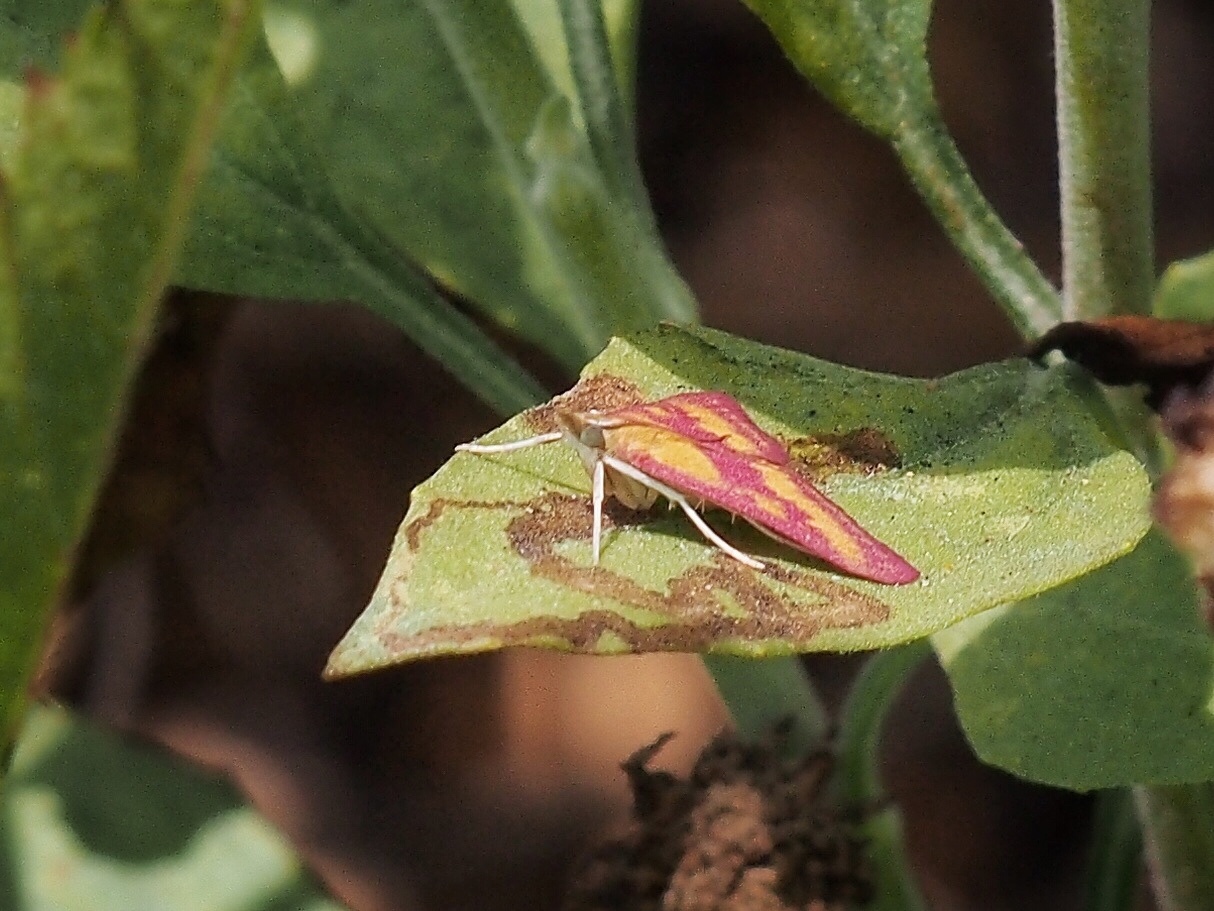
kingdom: Animalia
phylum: Arthropoda
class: Insecta
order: Lepidoptera
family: Crambidae
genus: Pyrausta
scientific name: Pyrausta laticlavia
